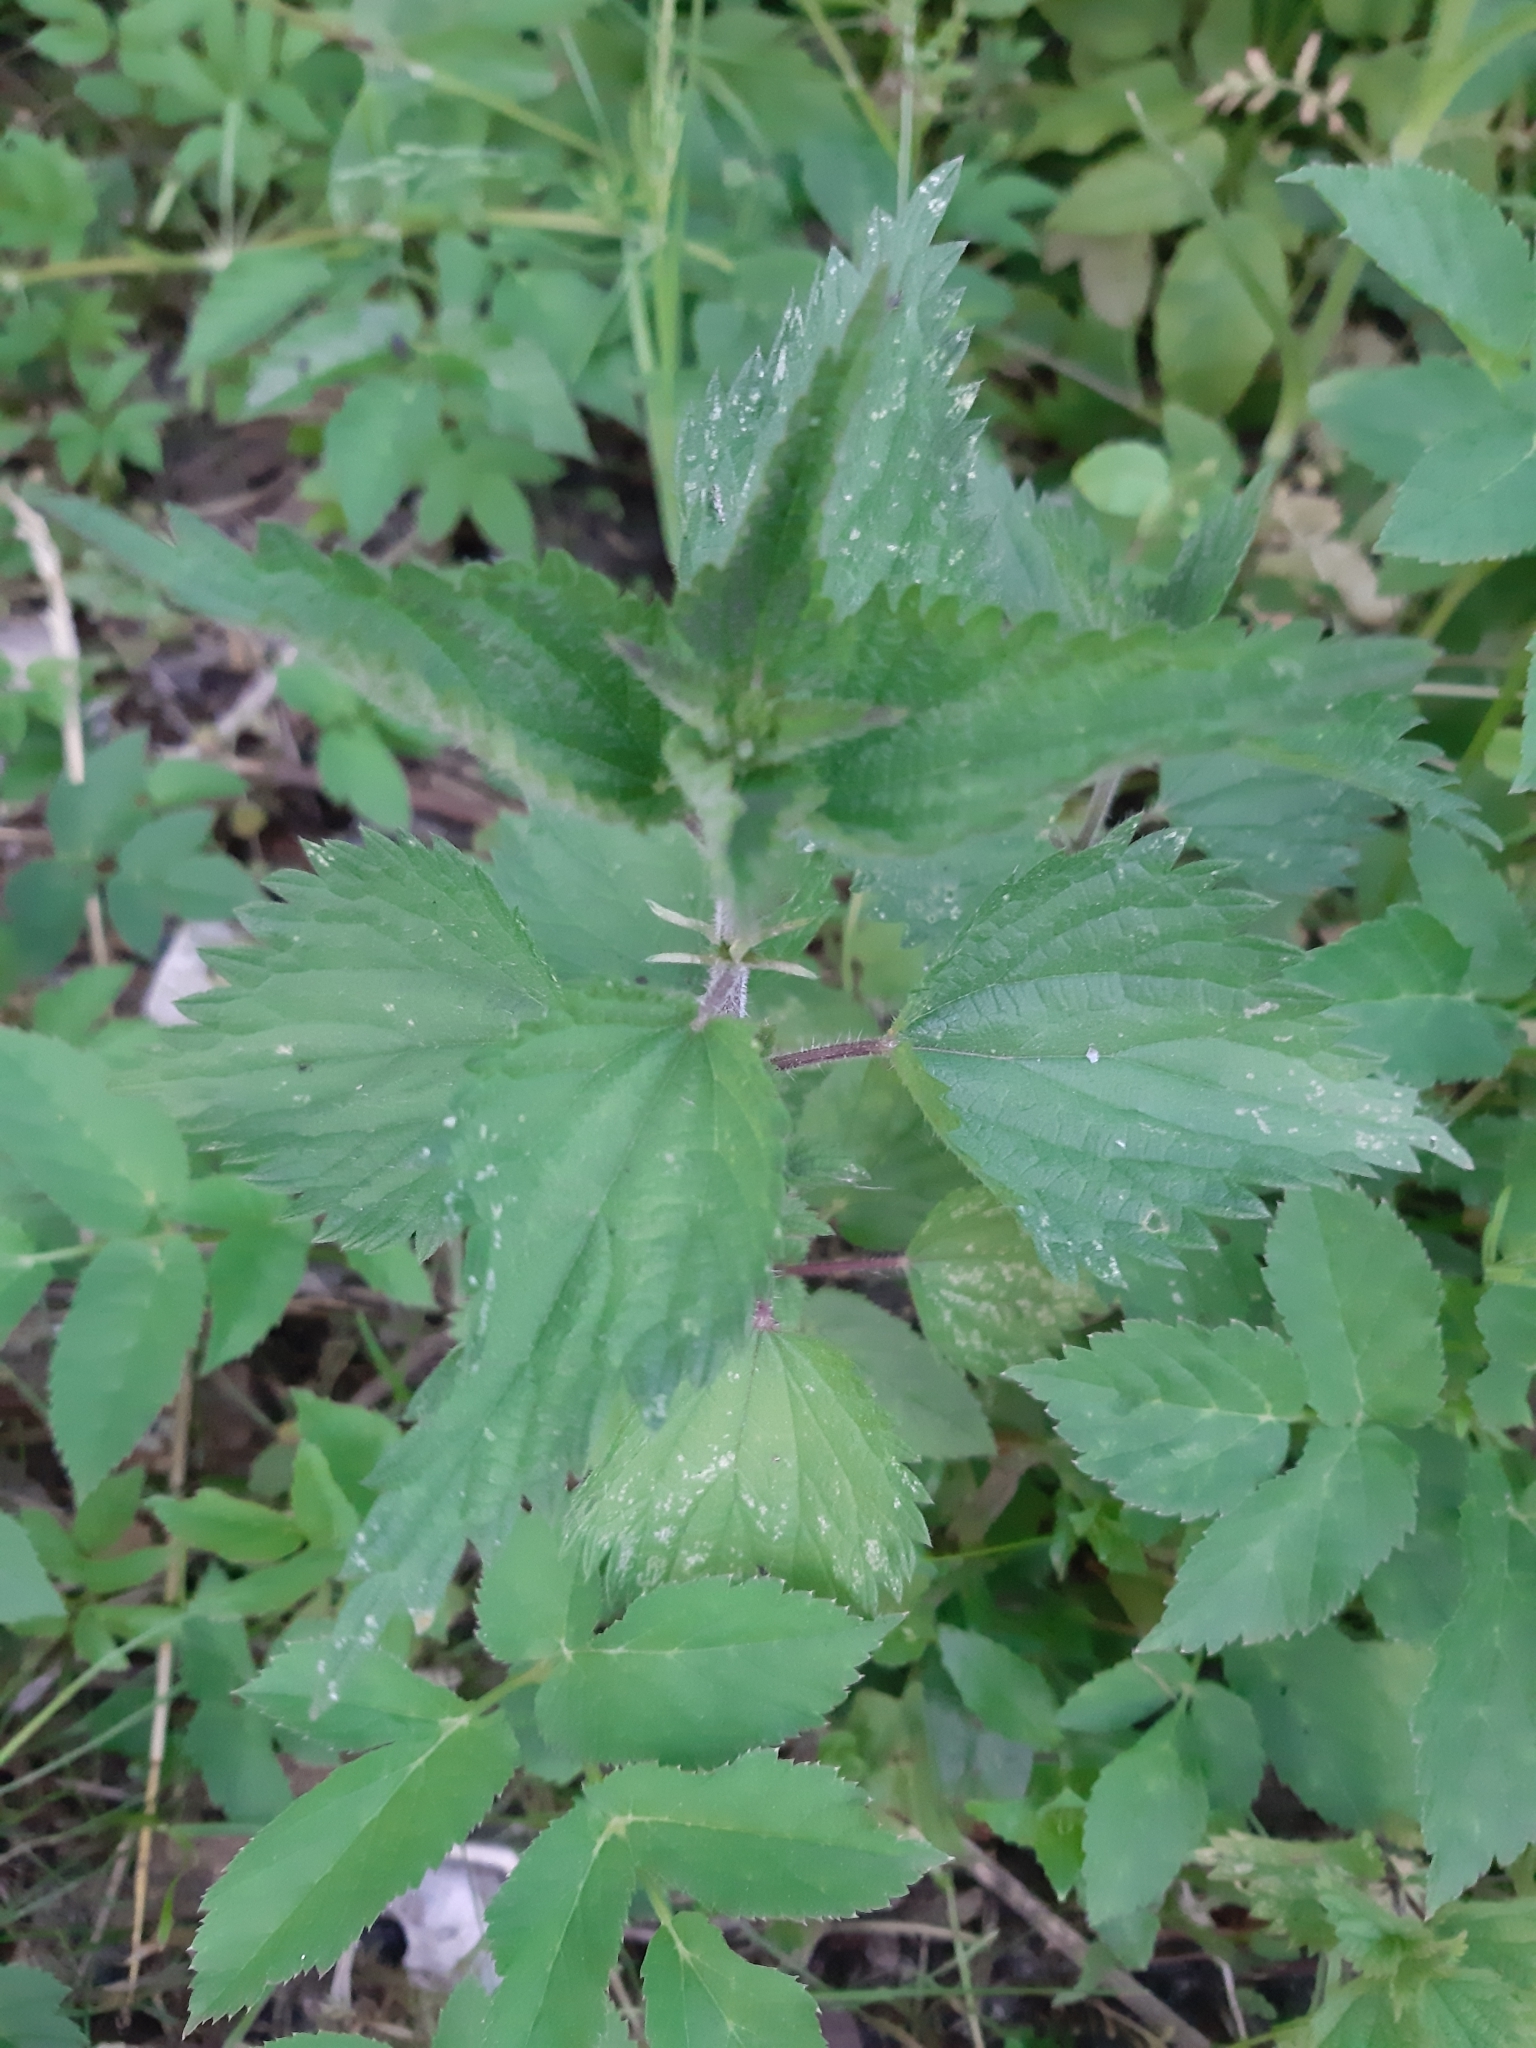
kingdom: Plantae
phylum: Tracheophyta
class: Magnoliopsida
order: Rosales
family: Urticaceae
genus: Urtica
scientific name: Urtica dioica
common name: Common nettle
